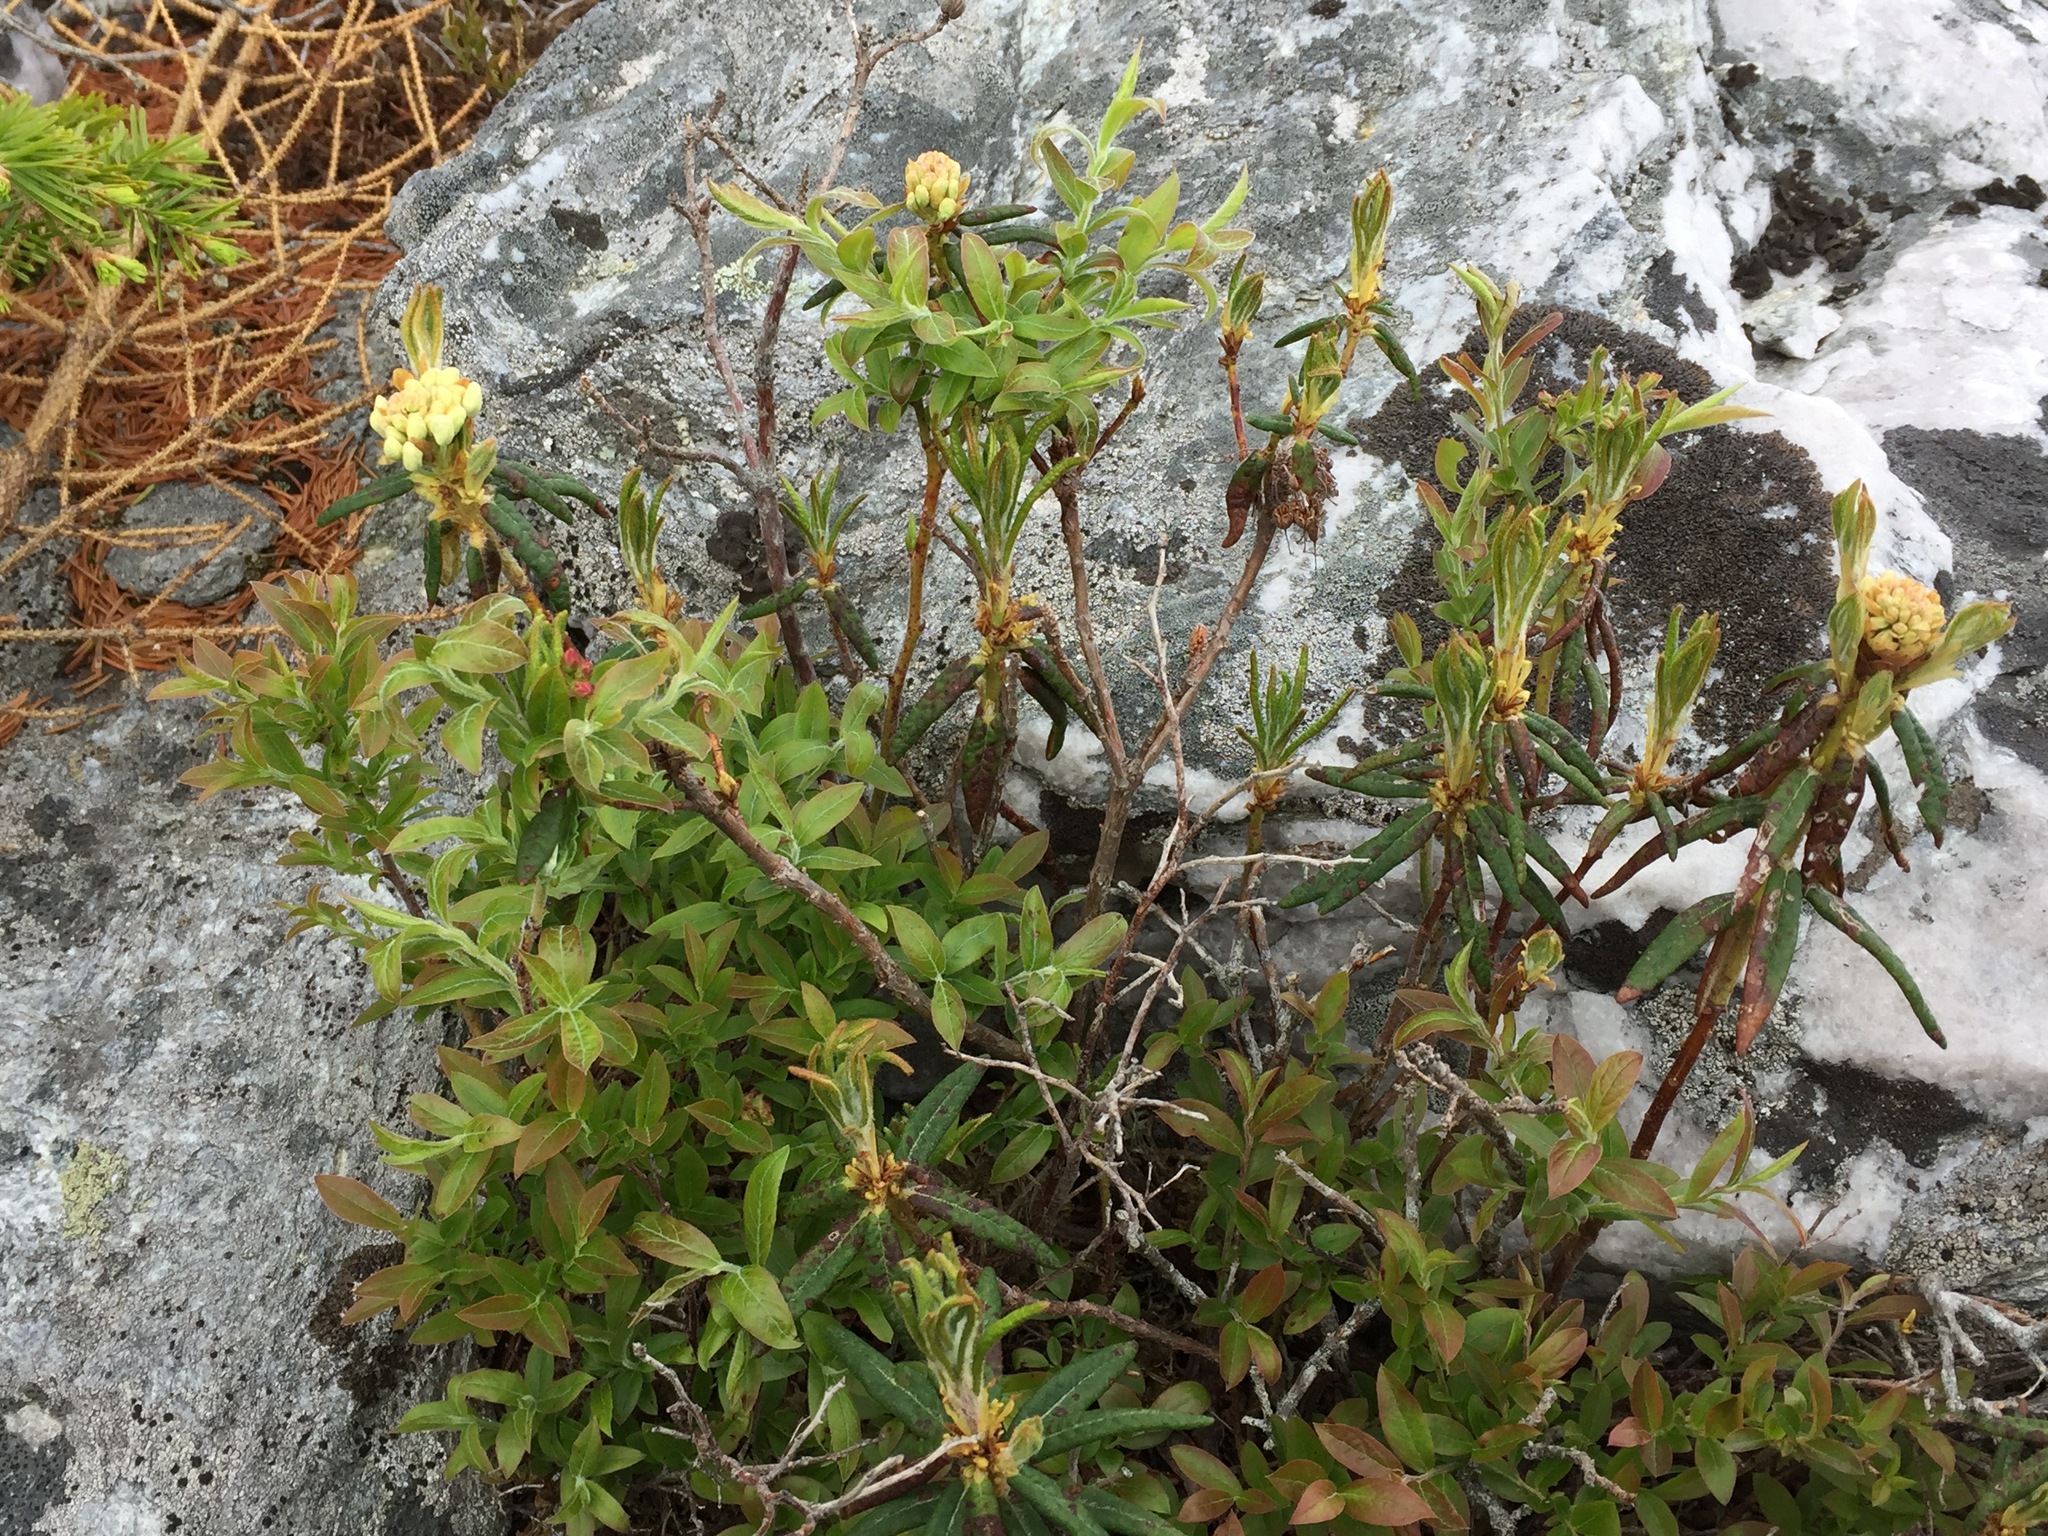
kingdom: Plantae
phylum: Tracheophyta
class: Magnoliopsida
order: Ericales
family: Ericaceae
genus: Rhododendron
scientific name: Rhododendron groenlandicum
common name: Bog labrador tea
